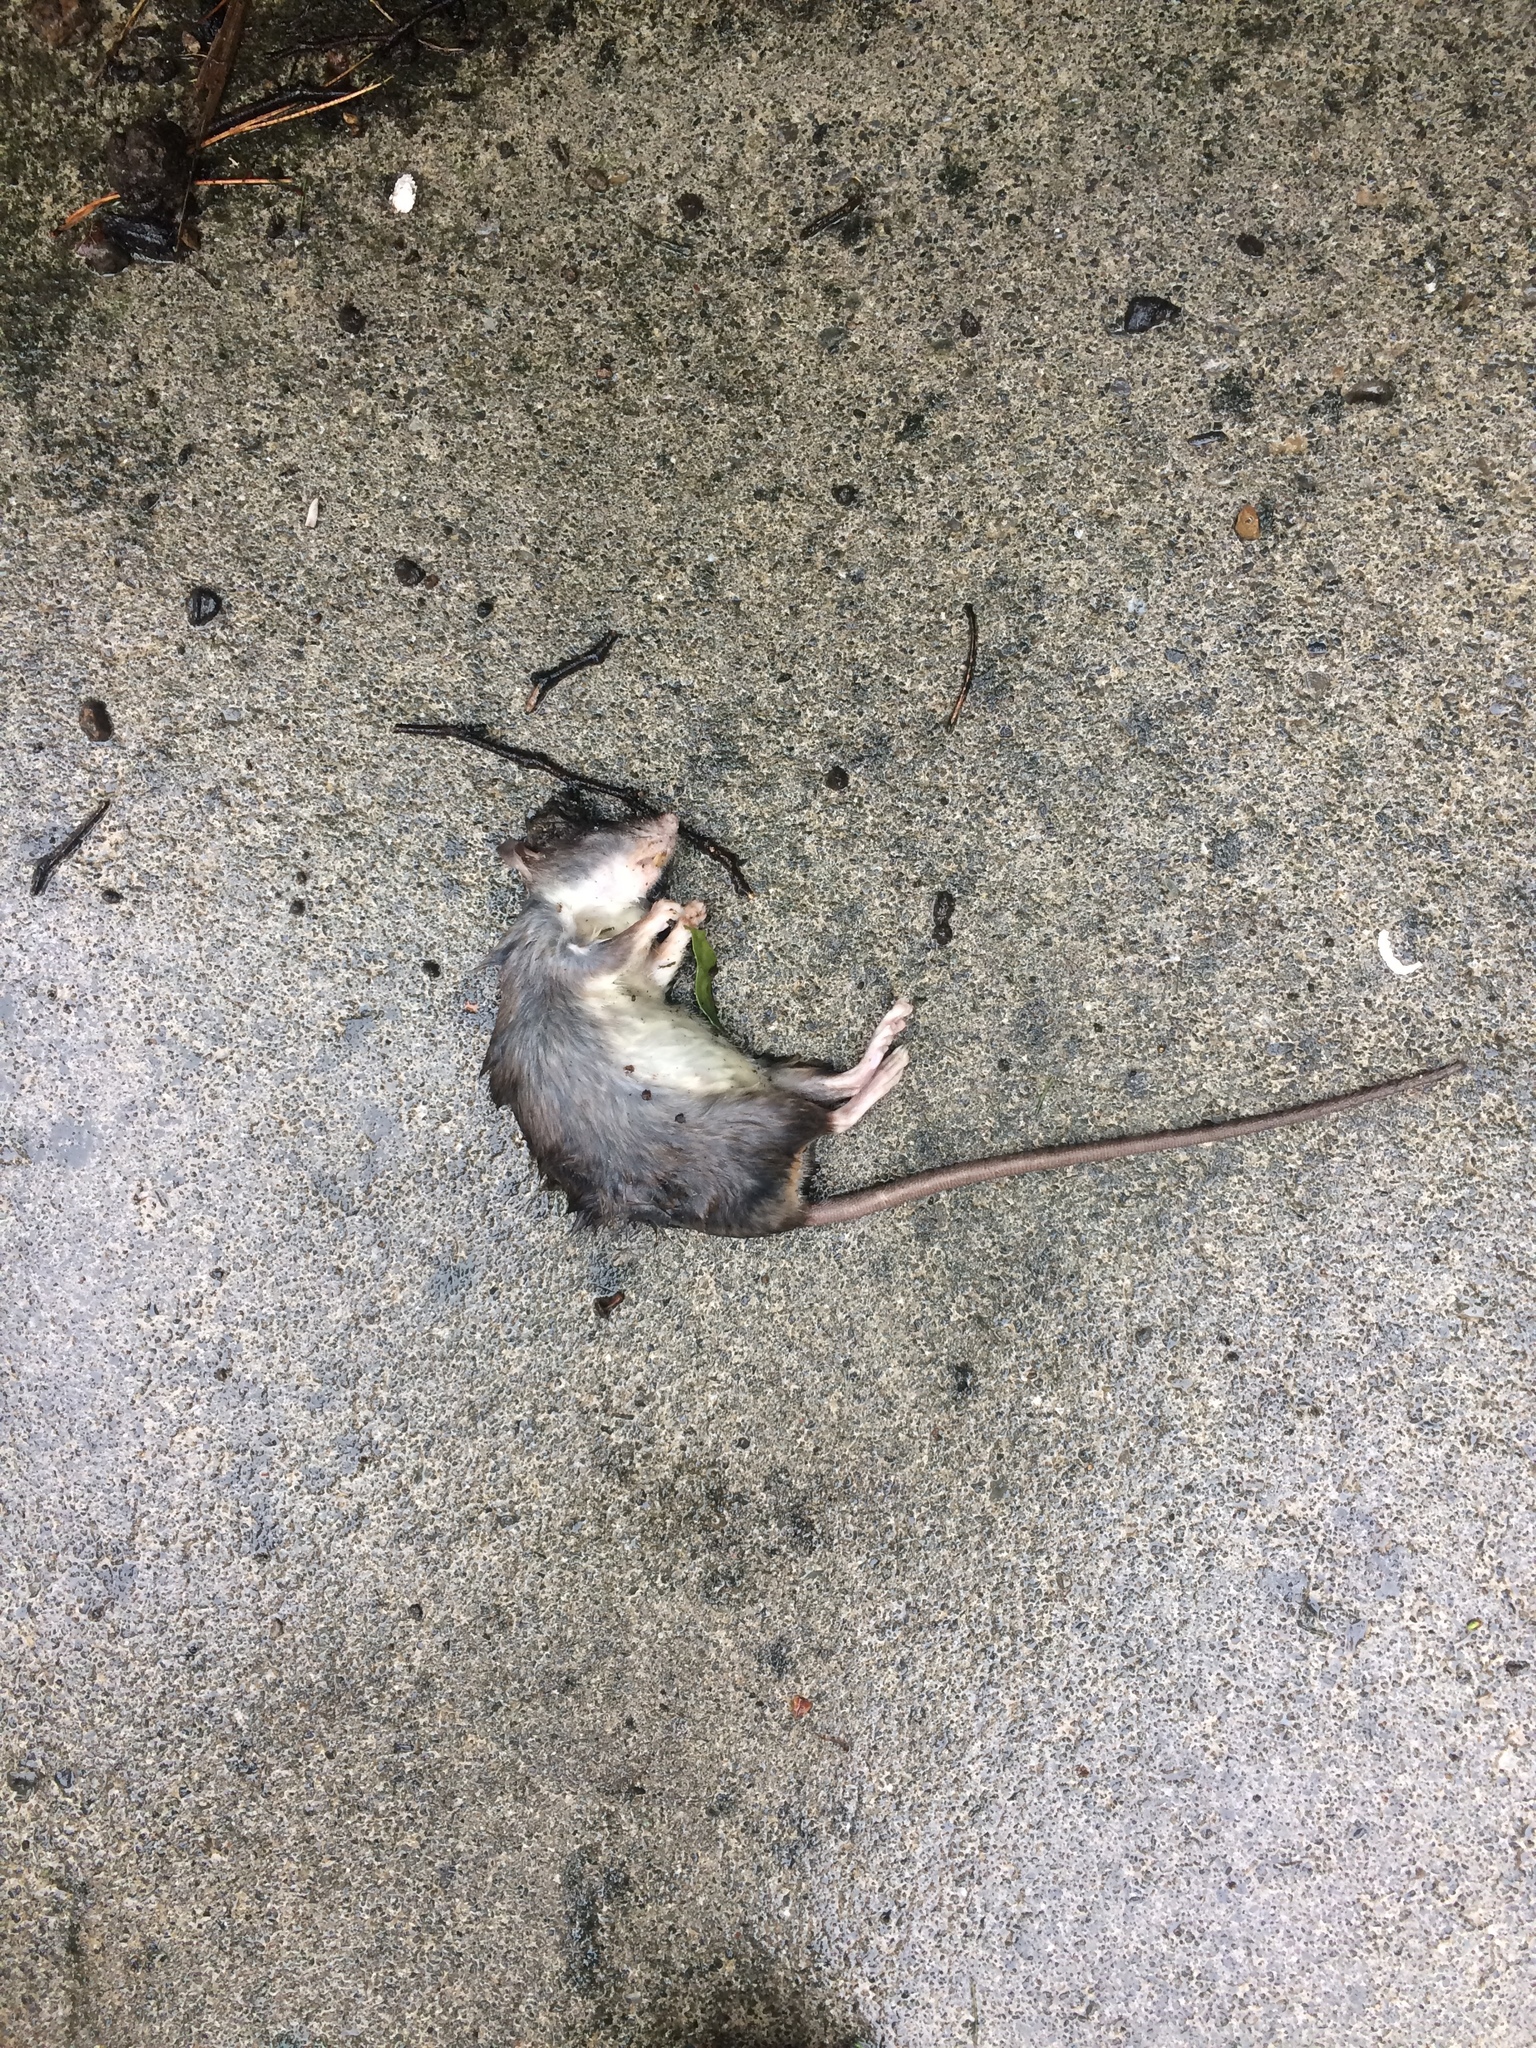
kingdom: Animalia
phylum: Chordata
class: Mammalia
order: Rodentia
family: Muridae
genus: Rattus
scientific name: Rattus rattus
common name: Black rat
